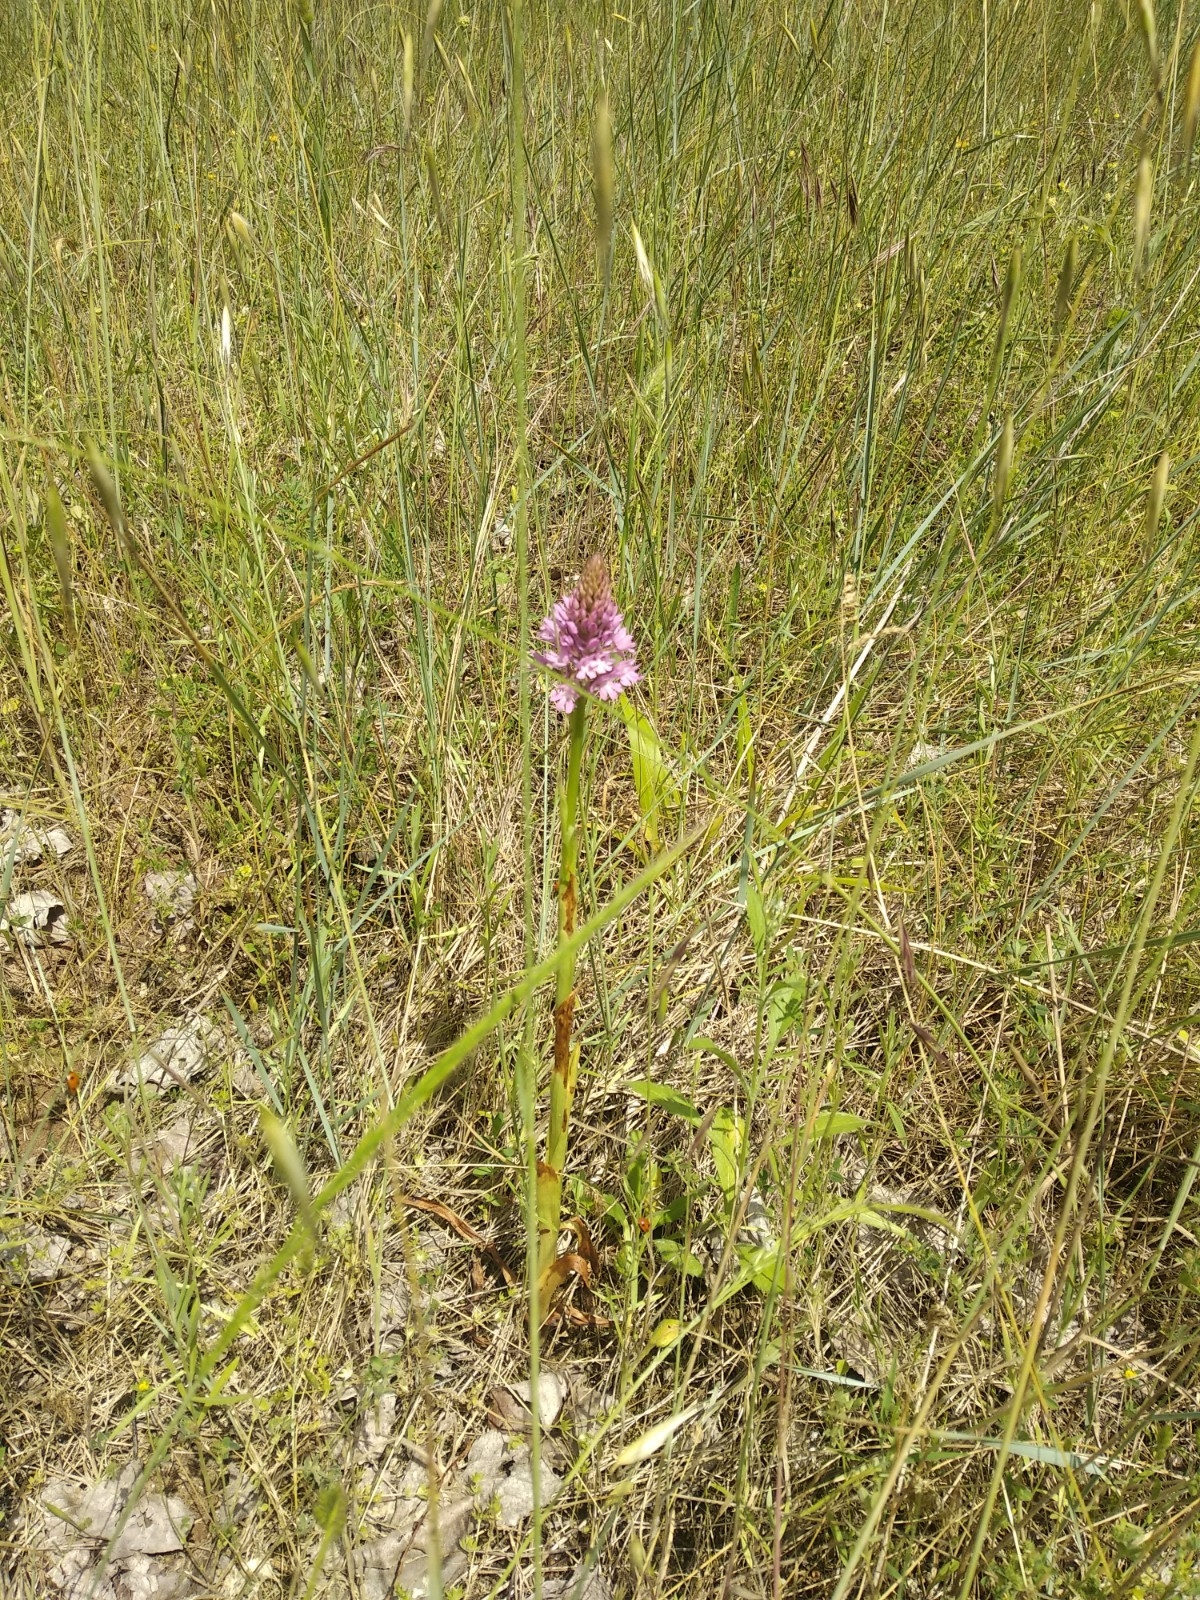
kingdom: Plantae
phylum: Tracheophyta
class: Liliopsida
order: Asparagales
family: Orchidaceae
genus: Anacamptis
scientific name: Anacamptis pyramidalis
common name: Pyramidal orchid
